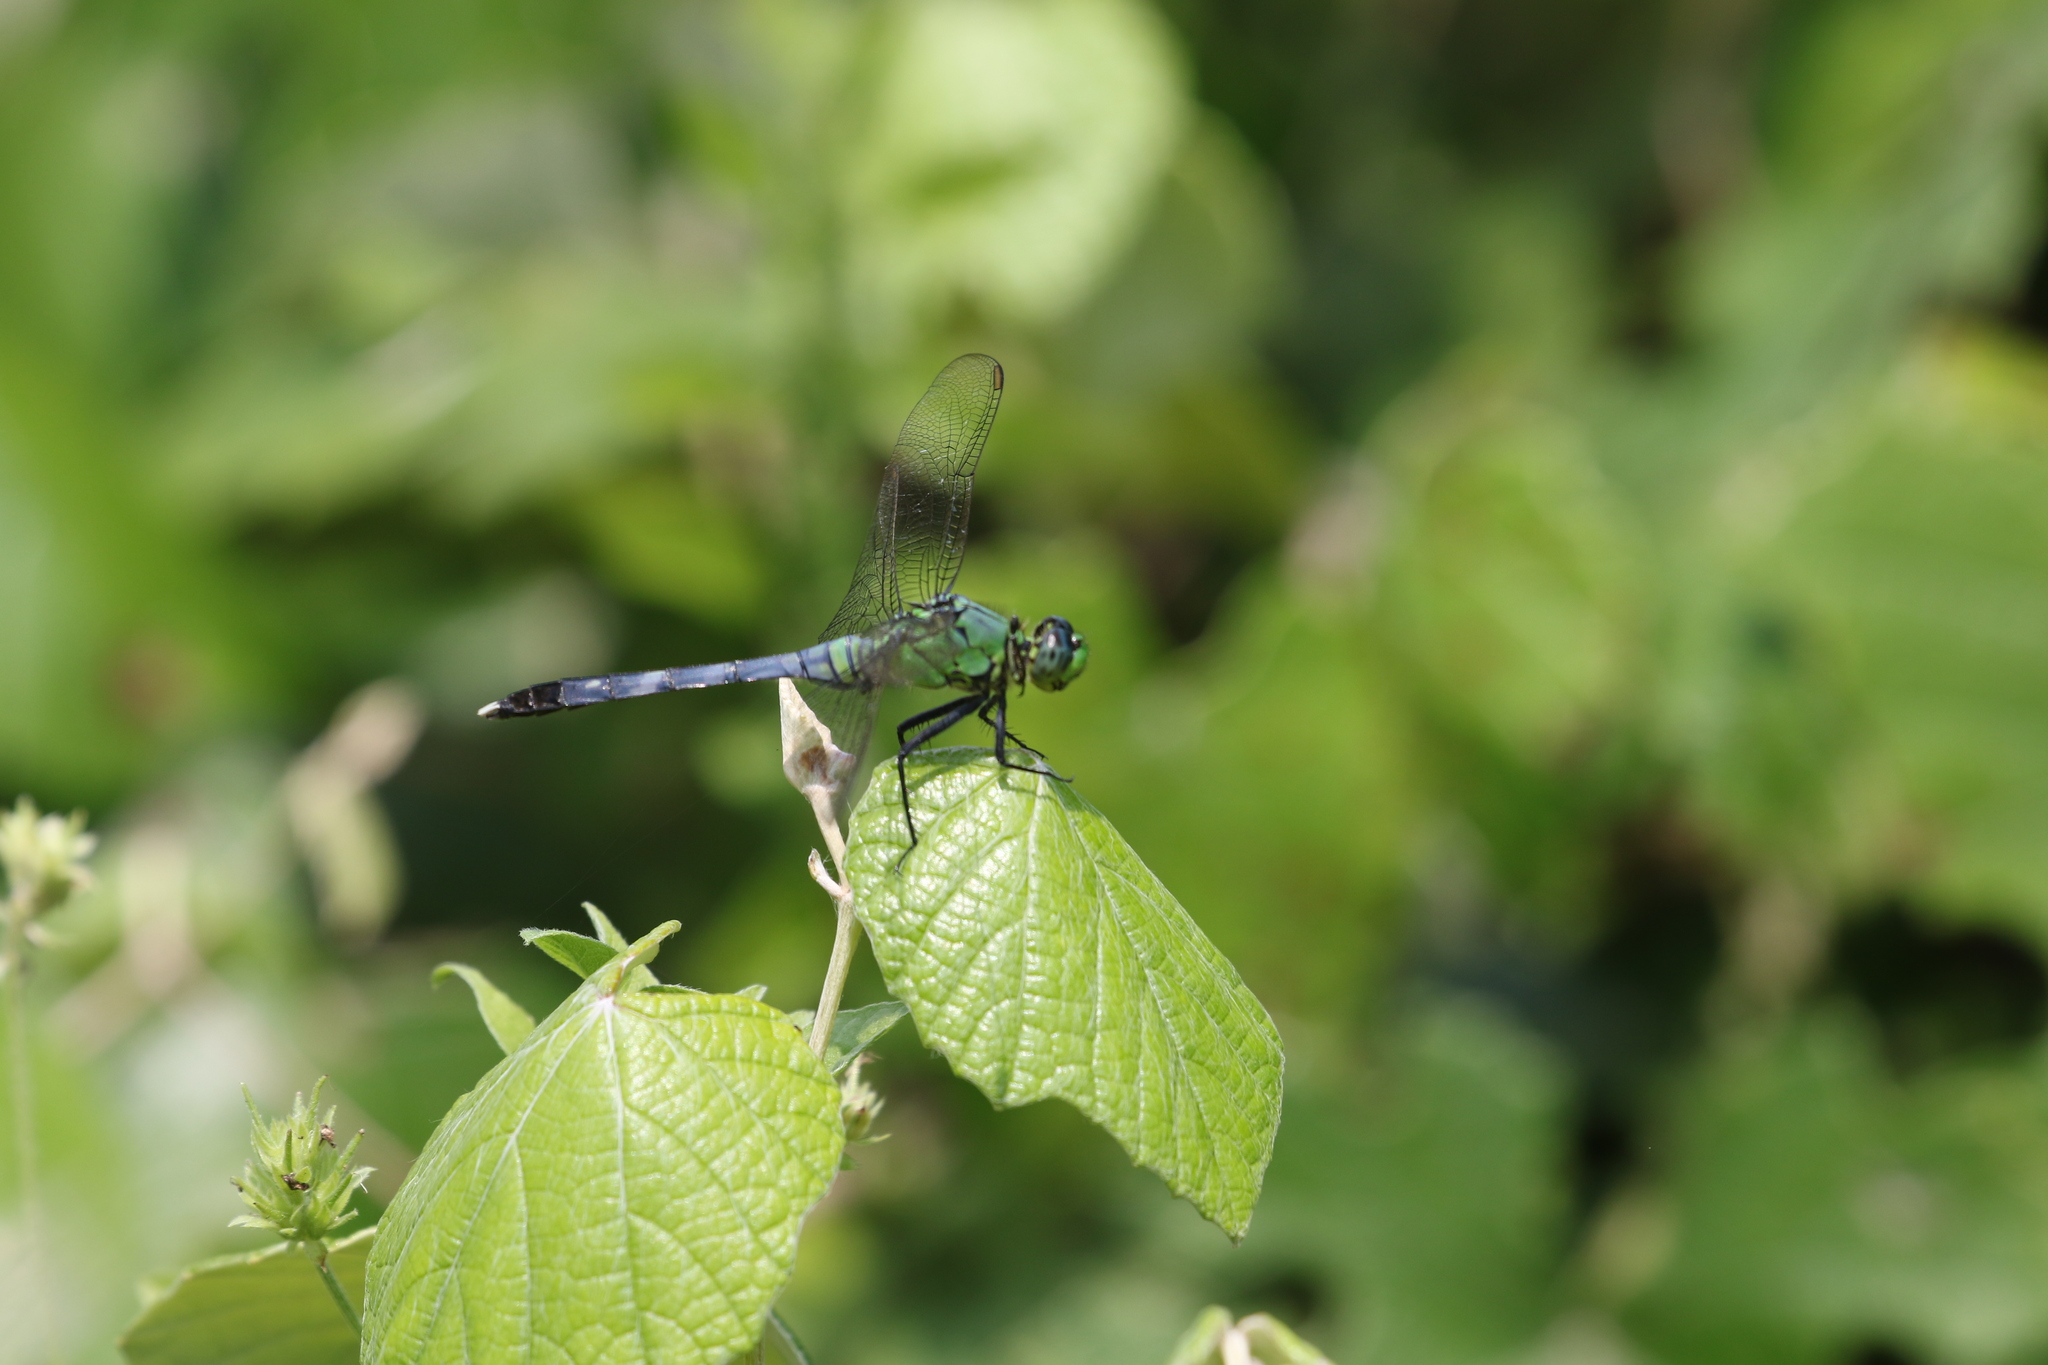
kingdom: Animalia
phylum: Arthropoda
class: Insecta
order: Odonata
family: Libellulidae
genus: Erythemis
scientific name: Erythemis simplicicollis
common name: Eastern pondhawk
